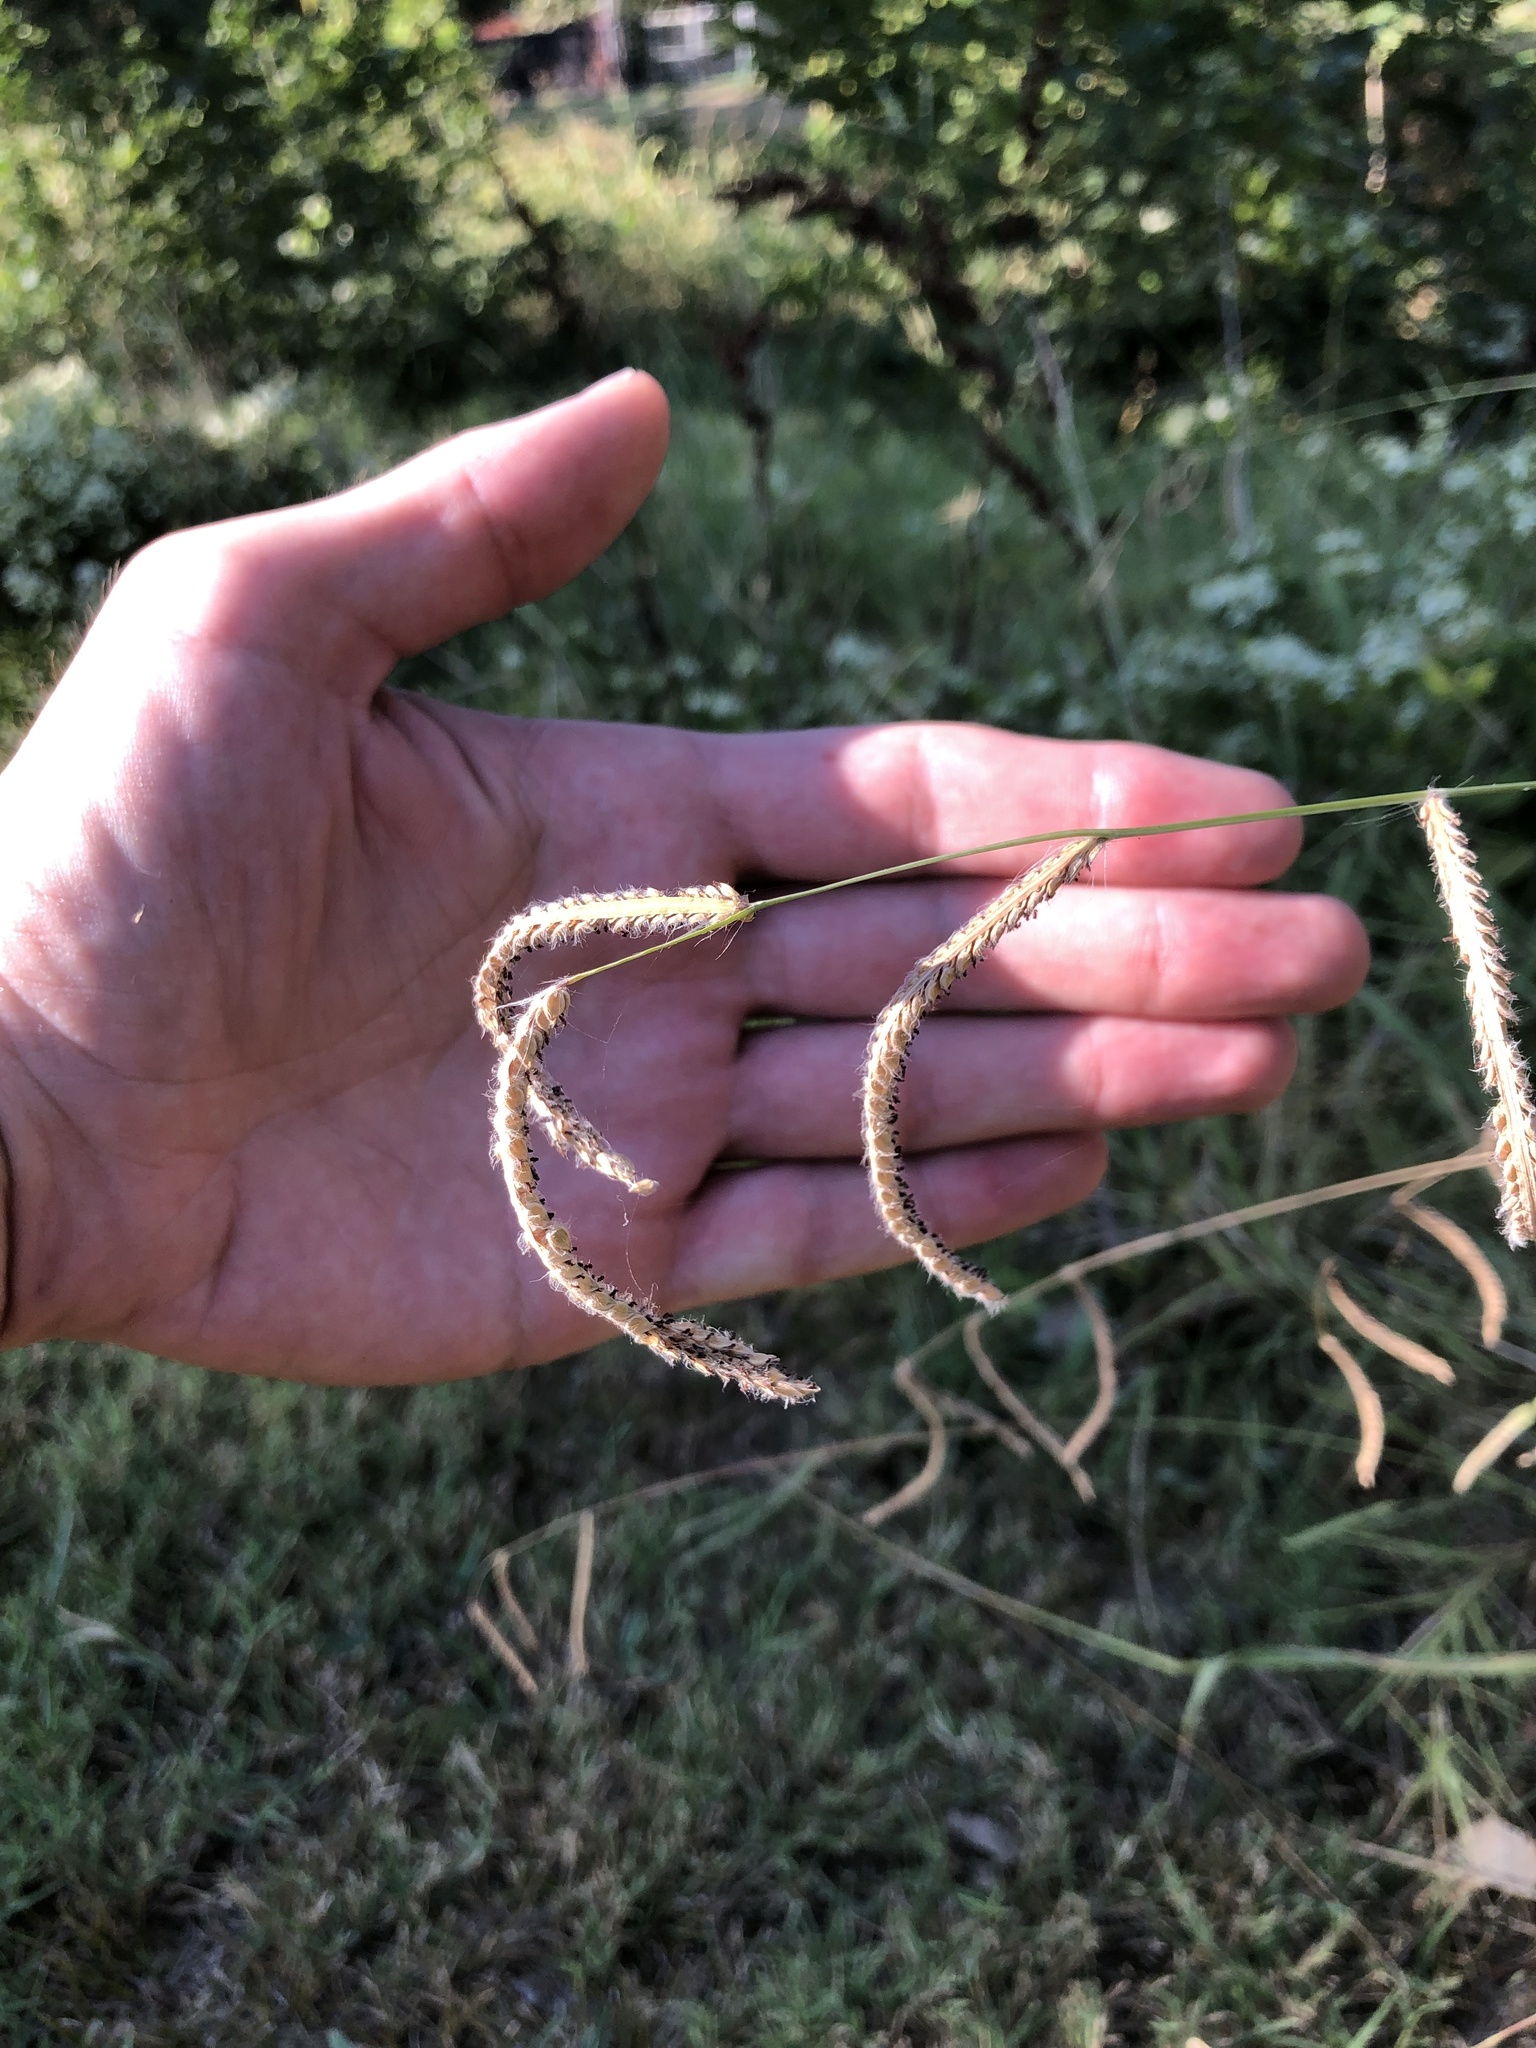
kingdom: Plantae
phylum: Tracheophyta
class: Liliopsida
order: Poales
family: Poaceae
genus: Paspalum
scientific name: Paspalum dilatatum
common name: Dallisgrass
